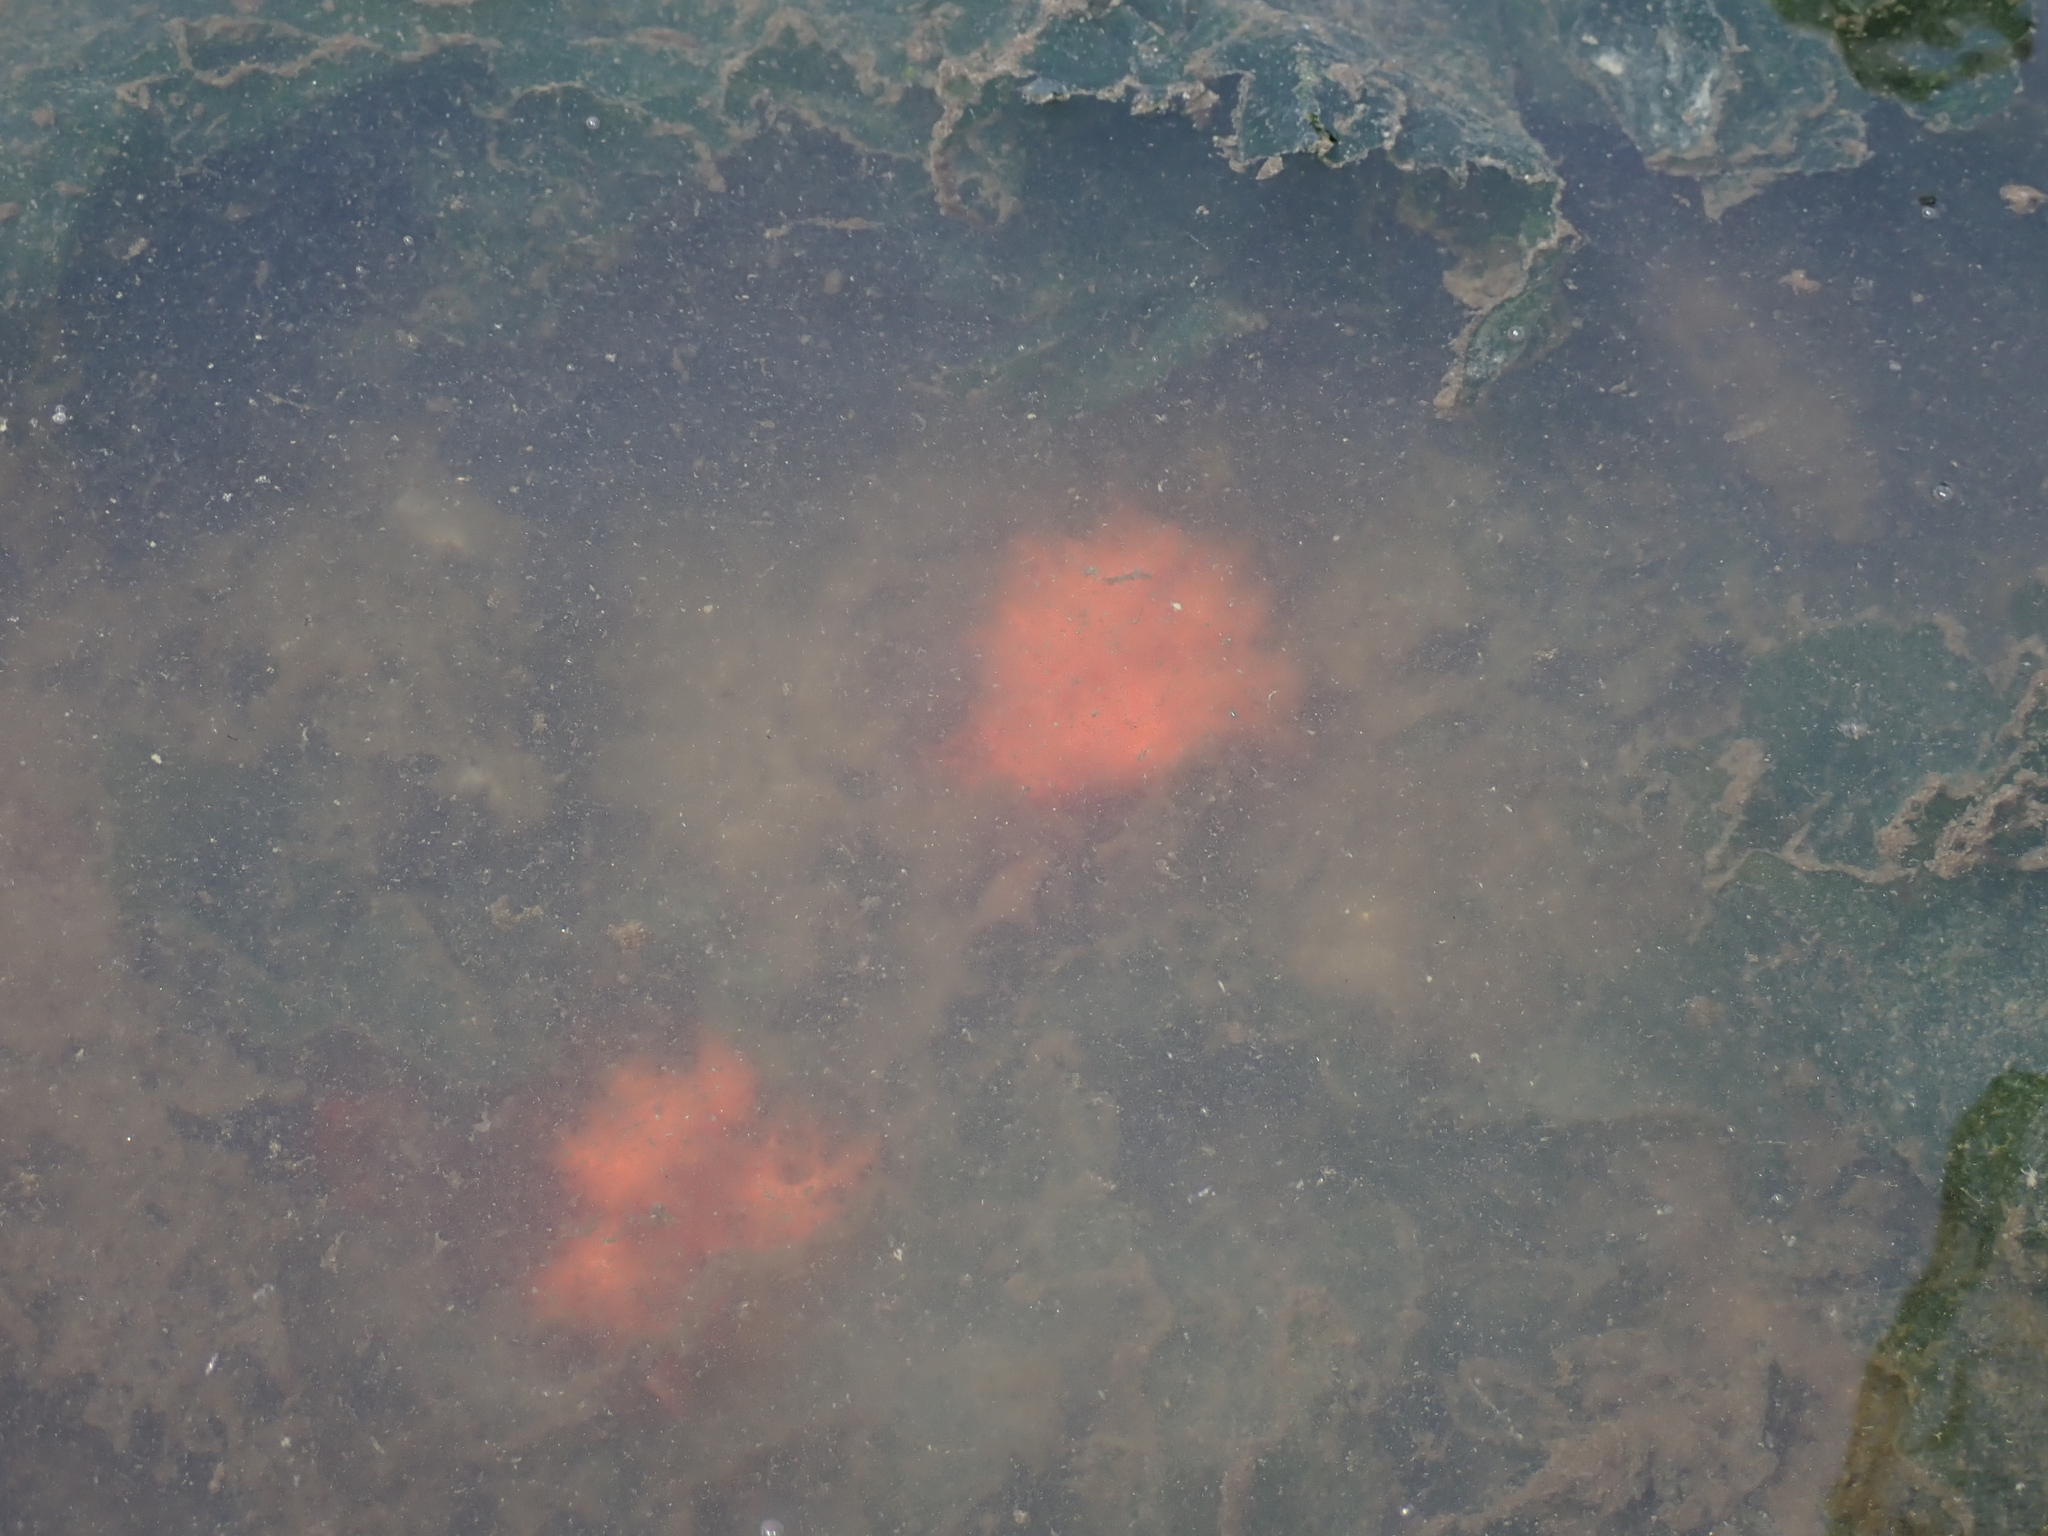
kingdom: Animalia
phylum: Echinodermata
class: Holothuroidea
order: Dendrochirotida
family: Cucumariidae
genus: Cucumaria
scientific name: Cucumaria miniata
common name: Orange sea cucumber
